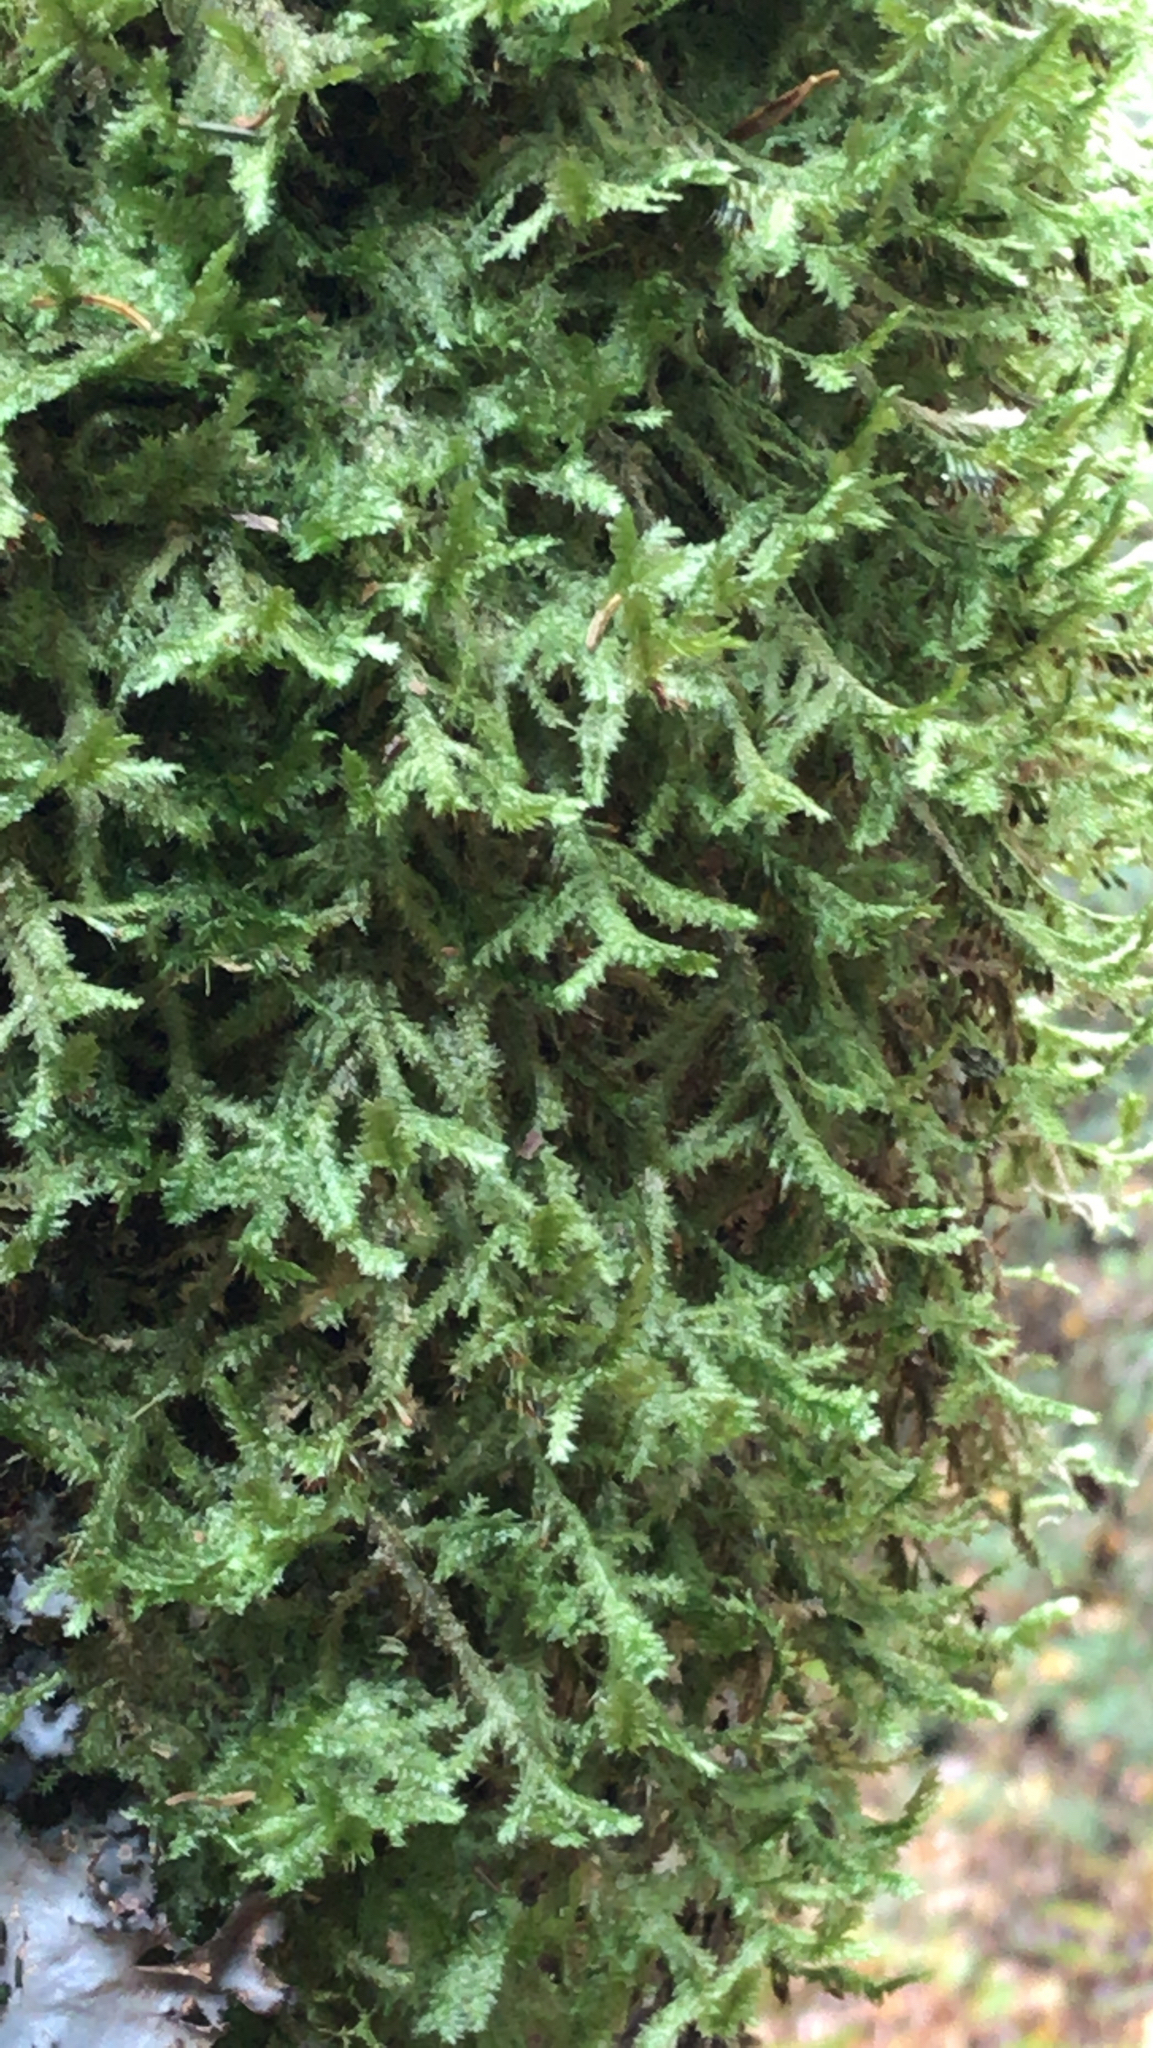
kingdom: Plantae
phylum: Bryophyta
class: Bryopsida
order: Hypnales
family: Neckeraceae
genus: Neckera
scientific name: Neckera pennata
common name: Feathery neckera
